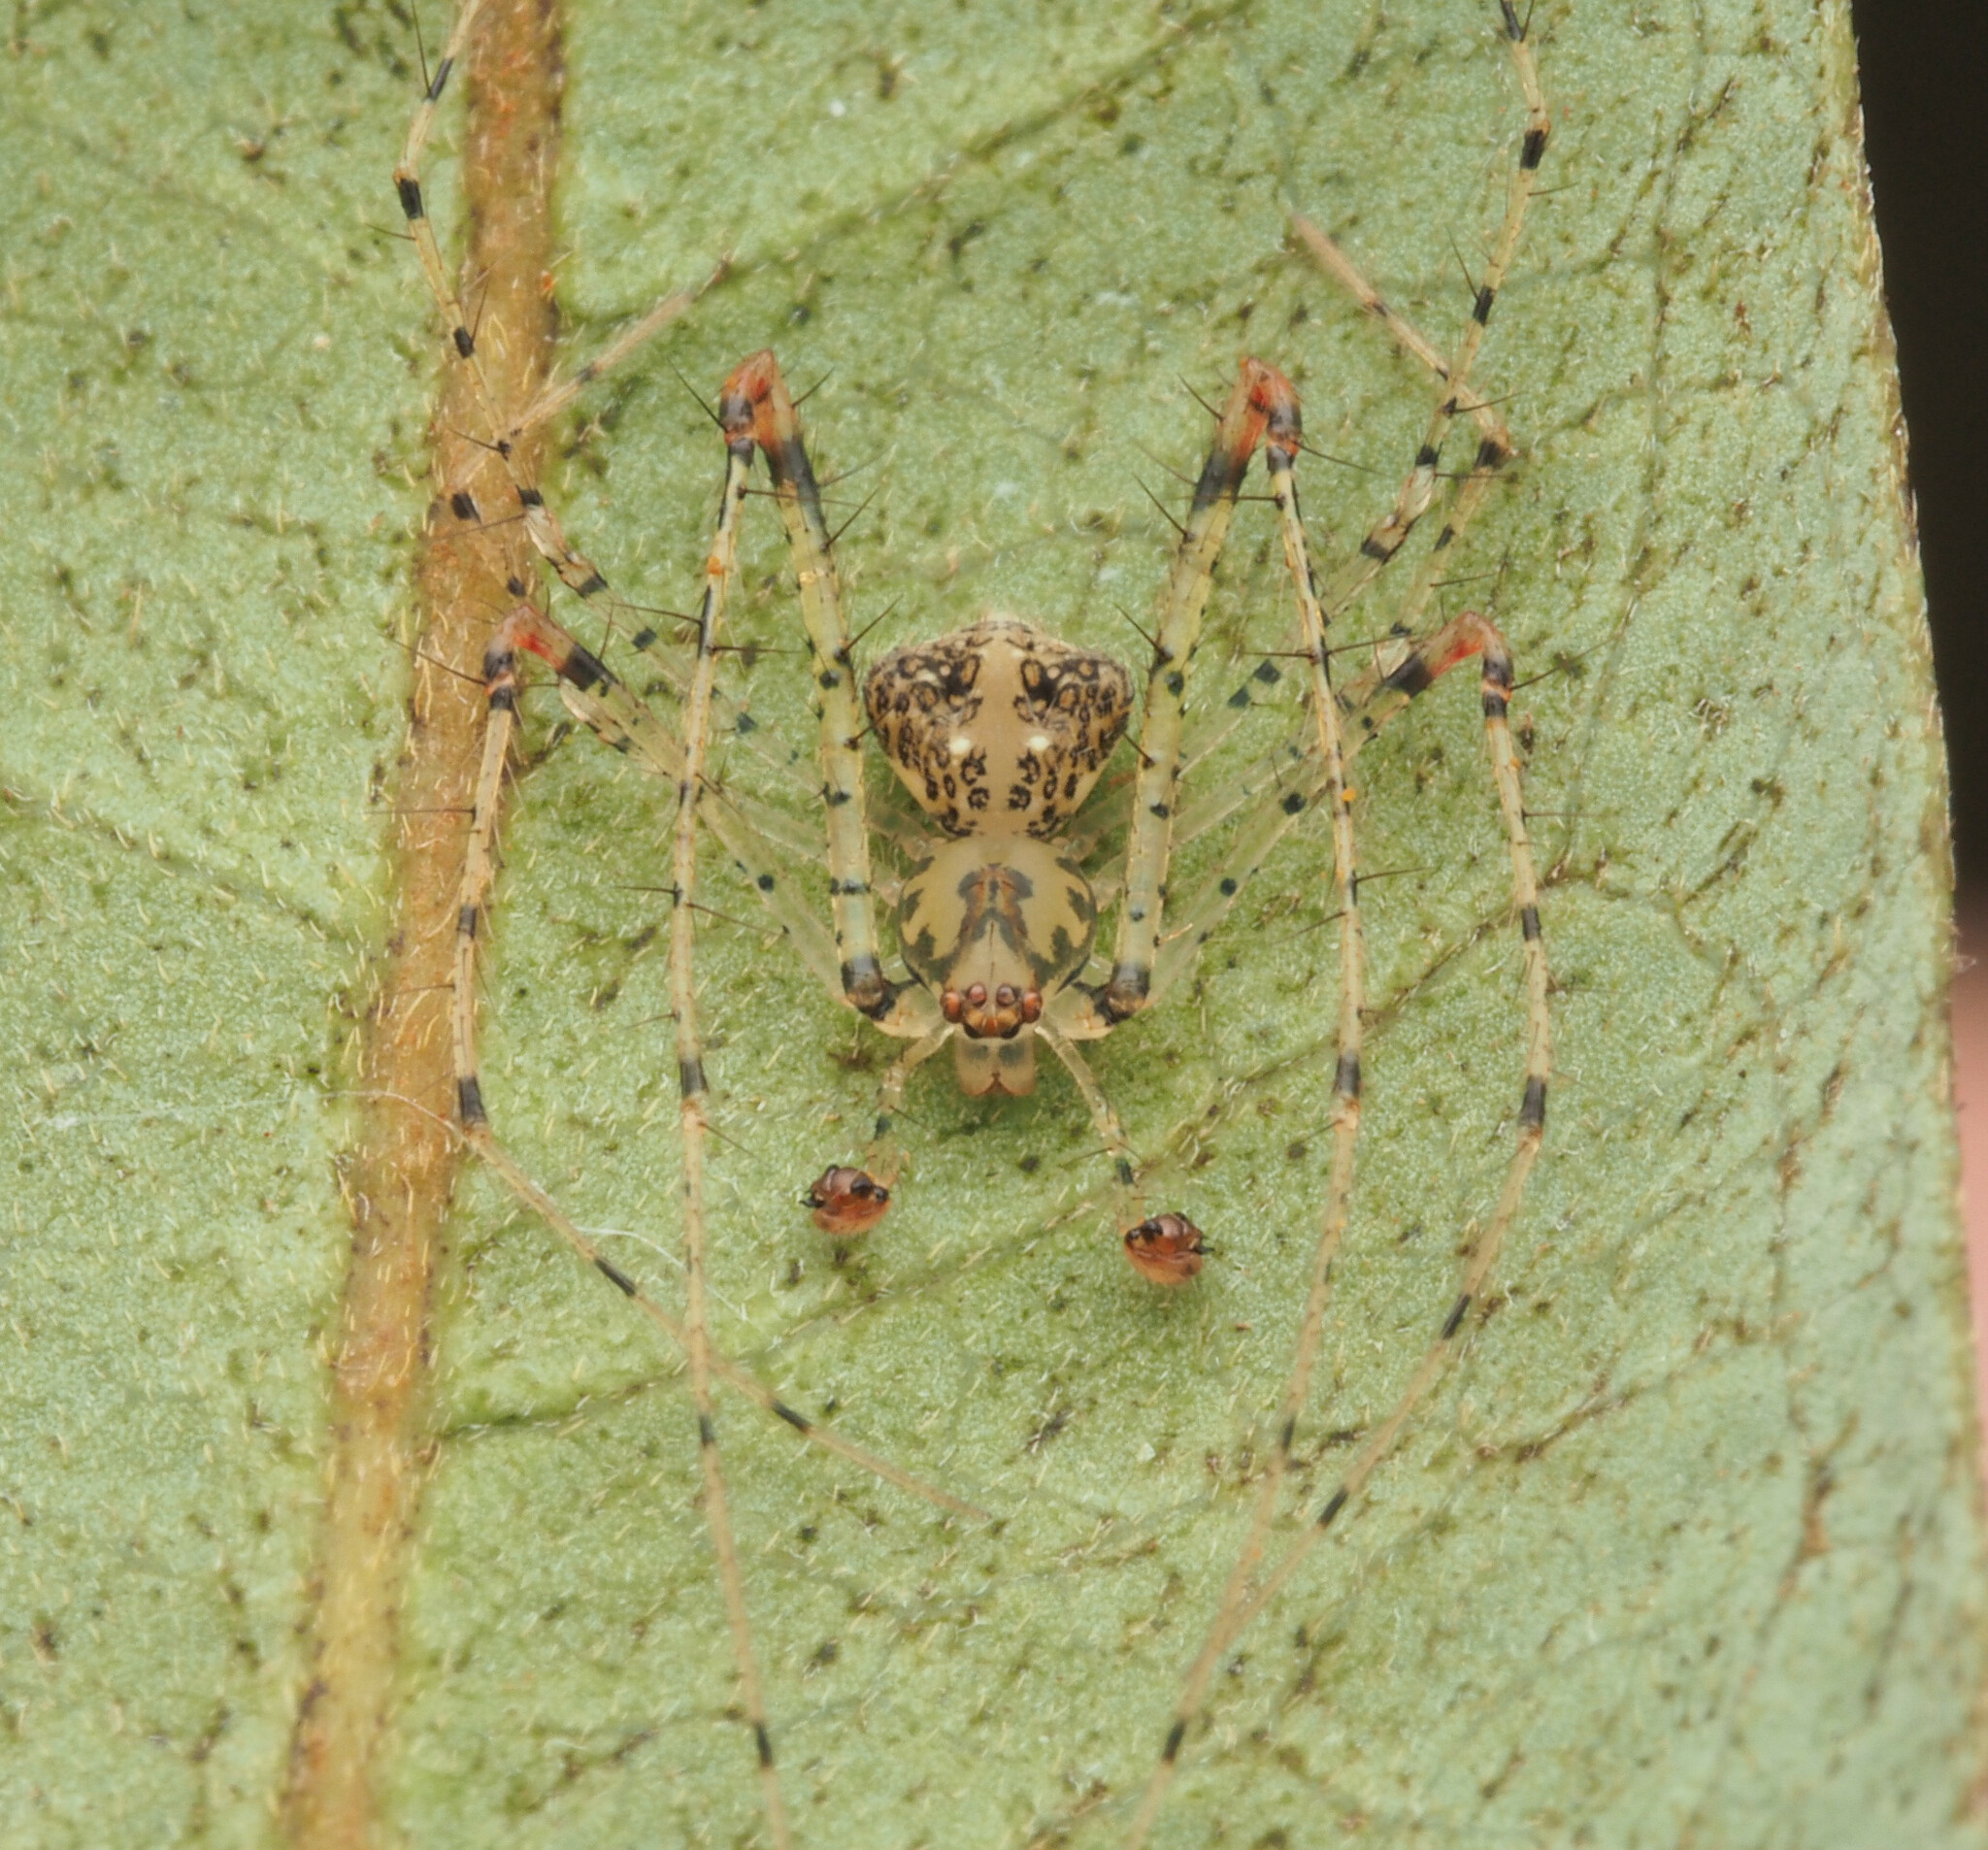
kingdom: Animalia
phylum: Arthropoda
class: Arachnida
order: Araneae
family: Mimetidae
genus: Australomimetus
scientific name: Australomimetus triangulosus
